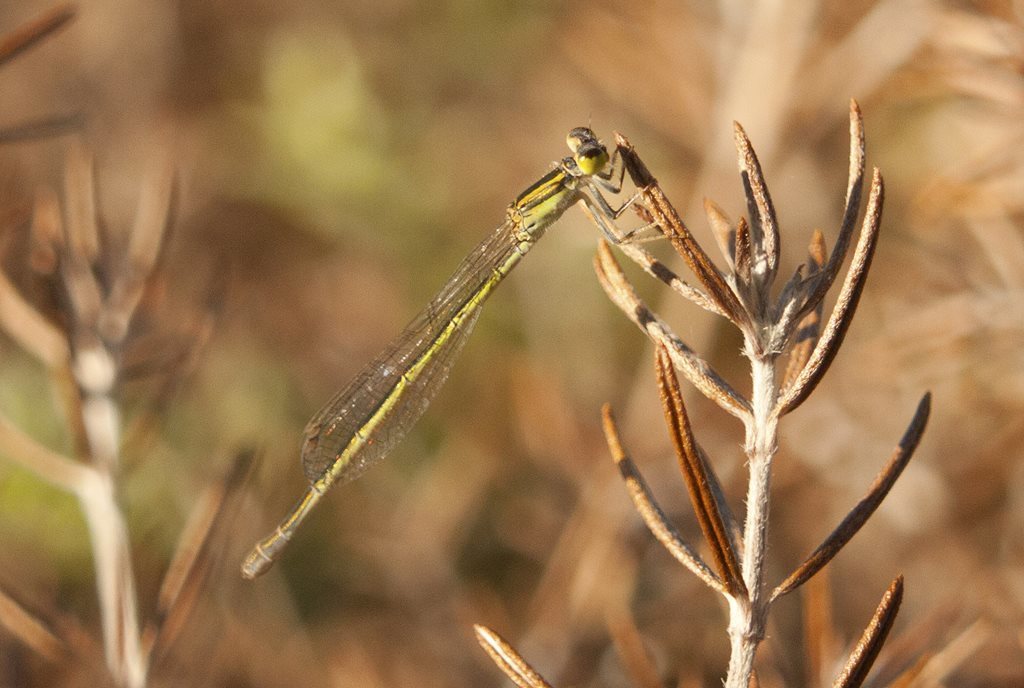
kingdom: Animalia
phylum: Arthropoda
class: Insecta
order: Odonata
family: Coenagrionidae
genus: Ischnura
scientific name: Ischnura aurora
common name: Gossamer damselfly
